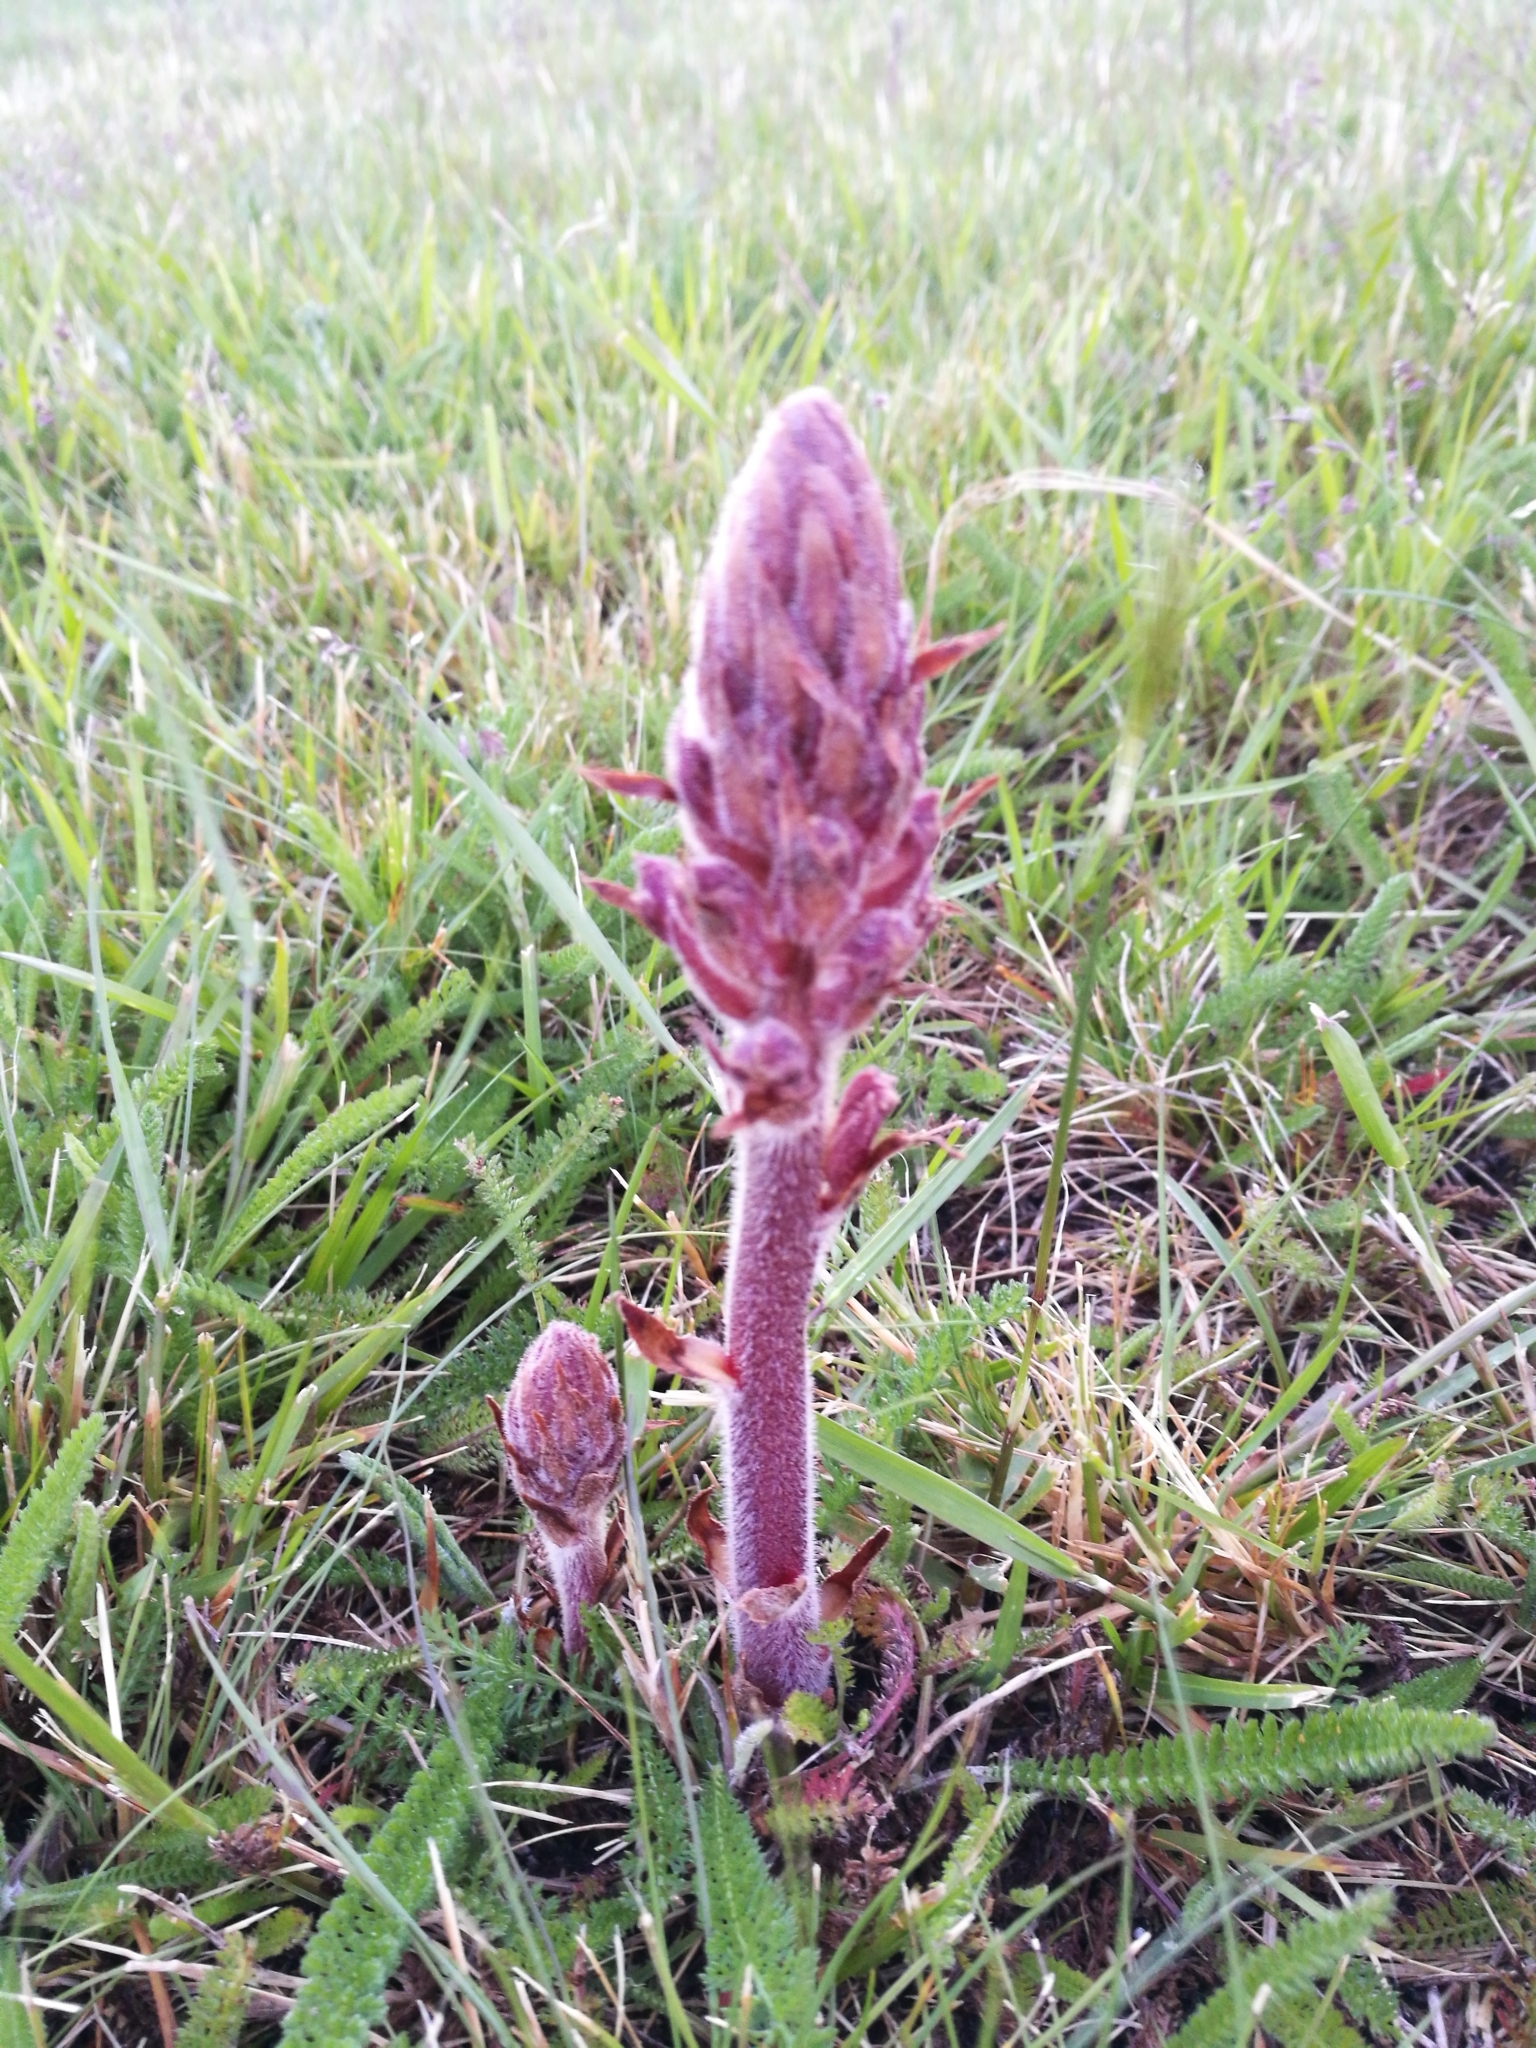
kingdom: Plantae
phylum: Tracheophyta
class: Magnoliopsida
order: Lamiales
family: Orobanchaceae
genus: Orobanche
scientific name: Orobanche minor
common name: Common broomrape
